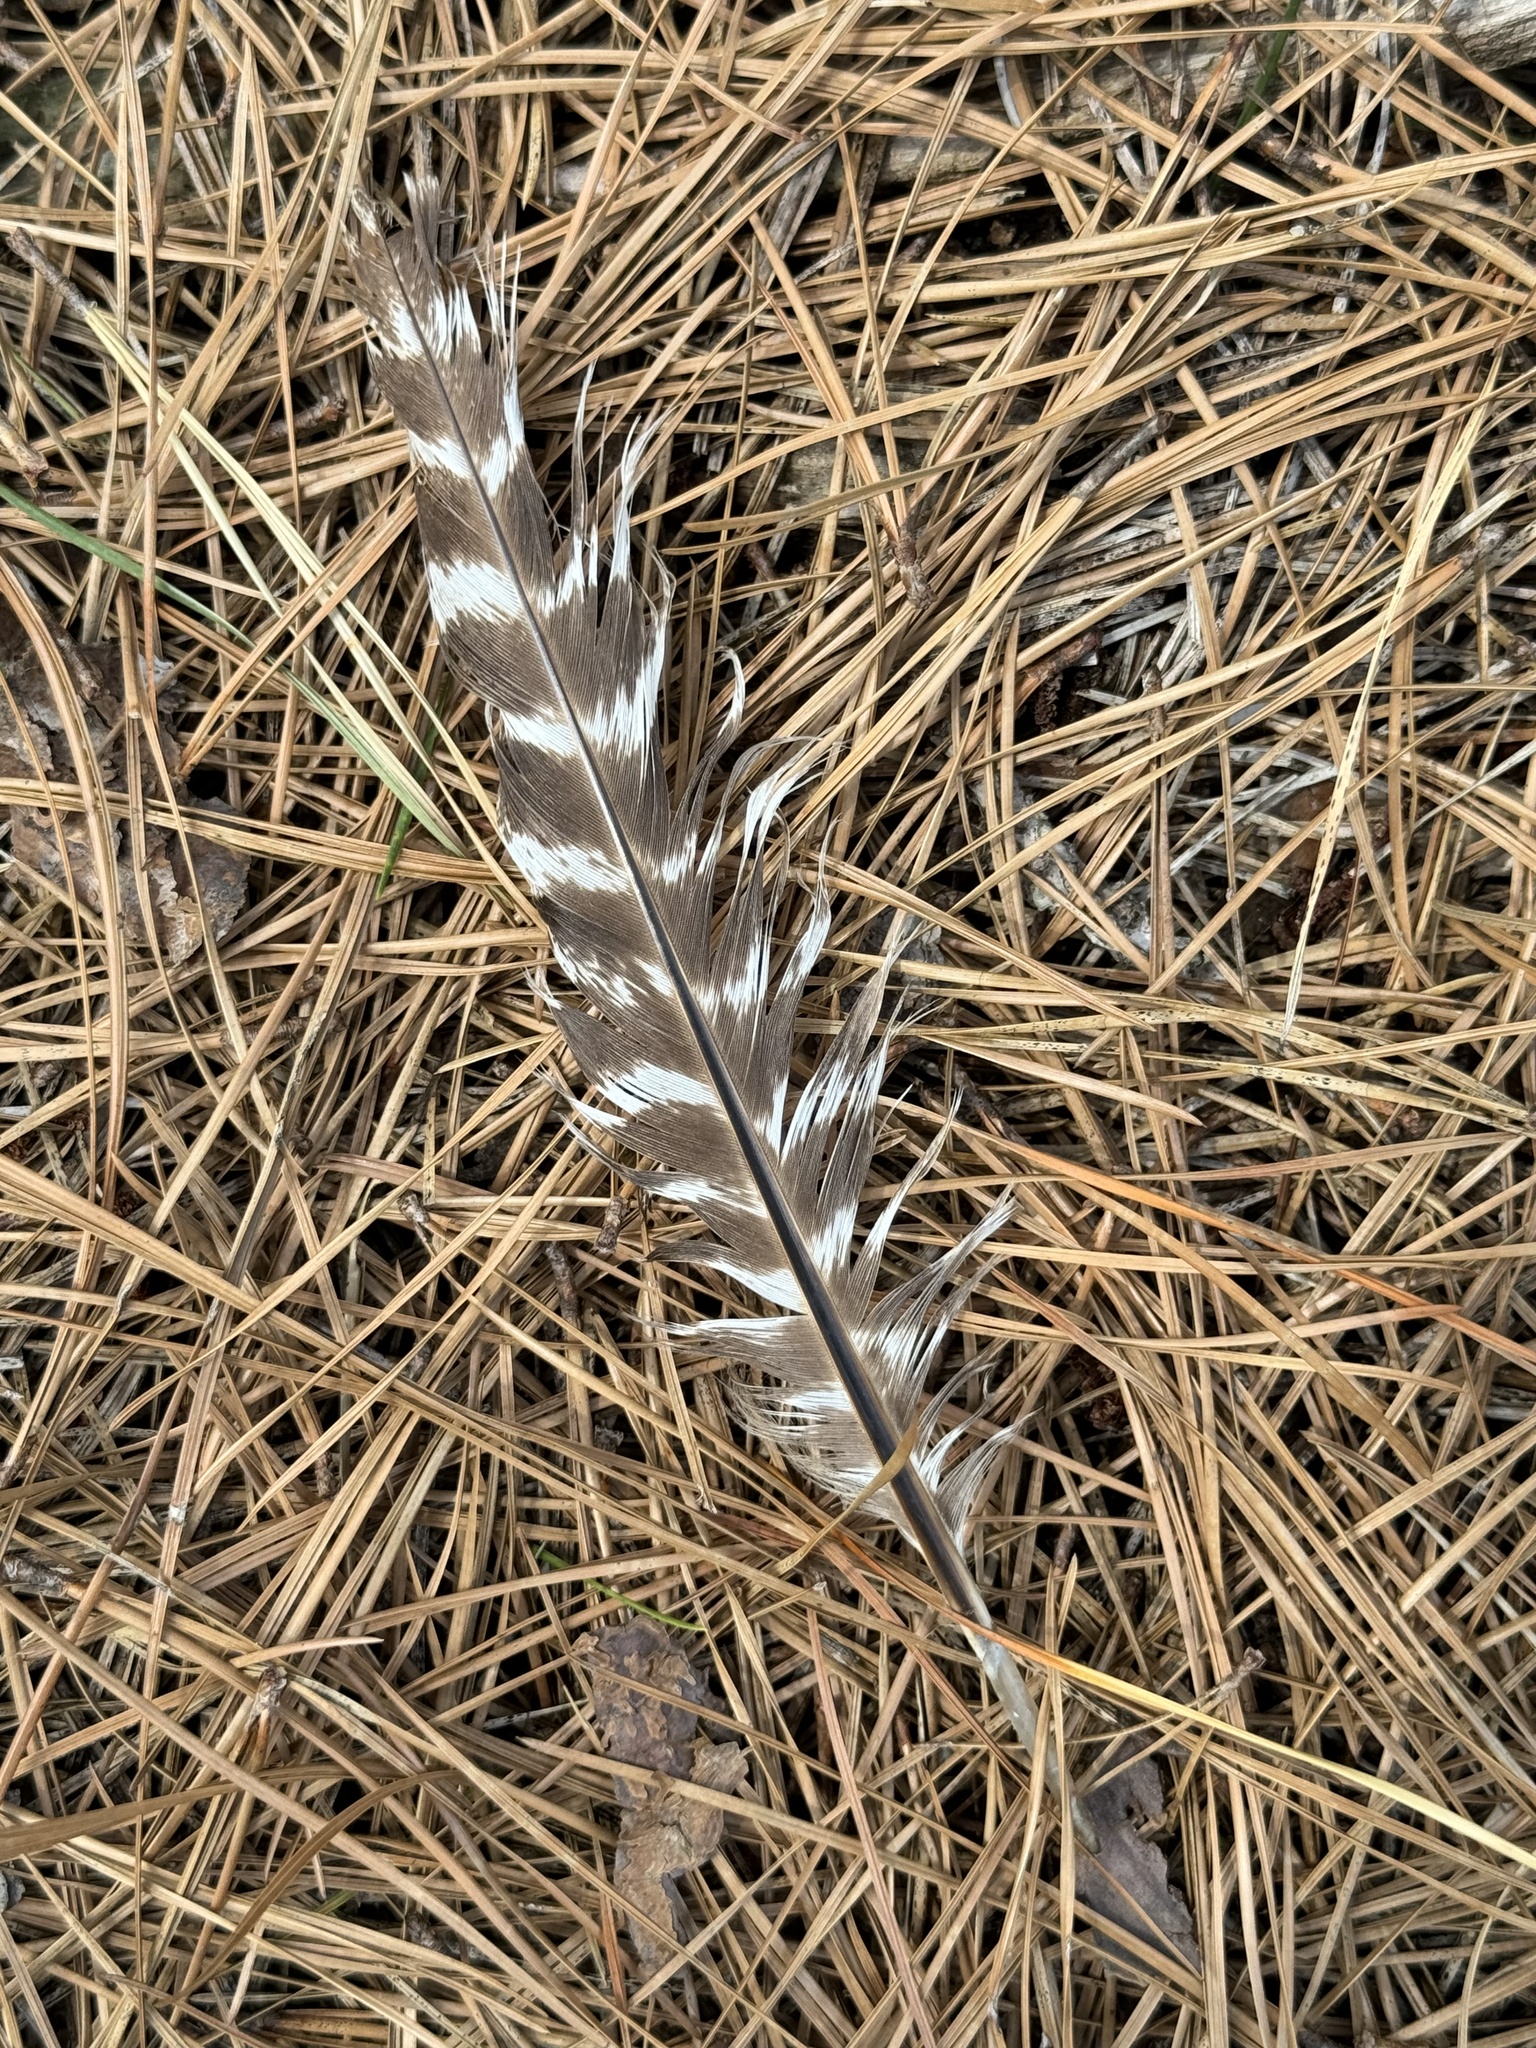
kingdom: Animalia
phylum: Chordata
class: Aves
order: Galliformes
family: Phasianidae
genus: Meleagris
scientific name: Meleagris gallopavo
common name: Wild turkey
